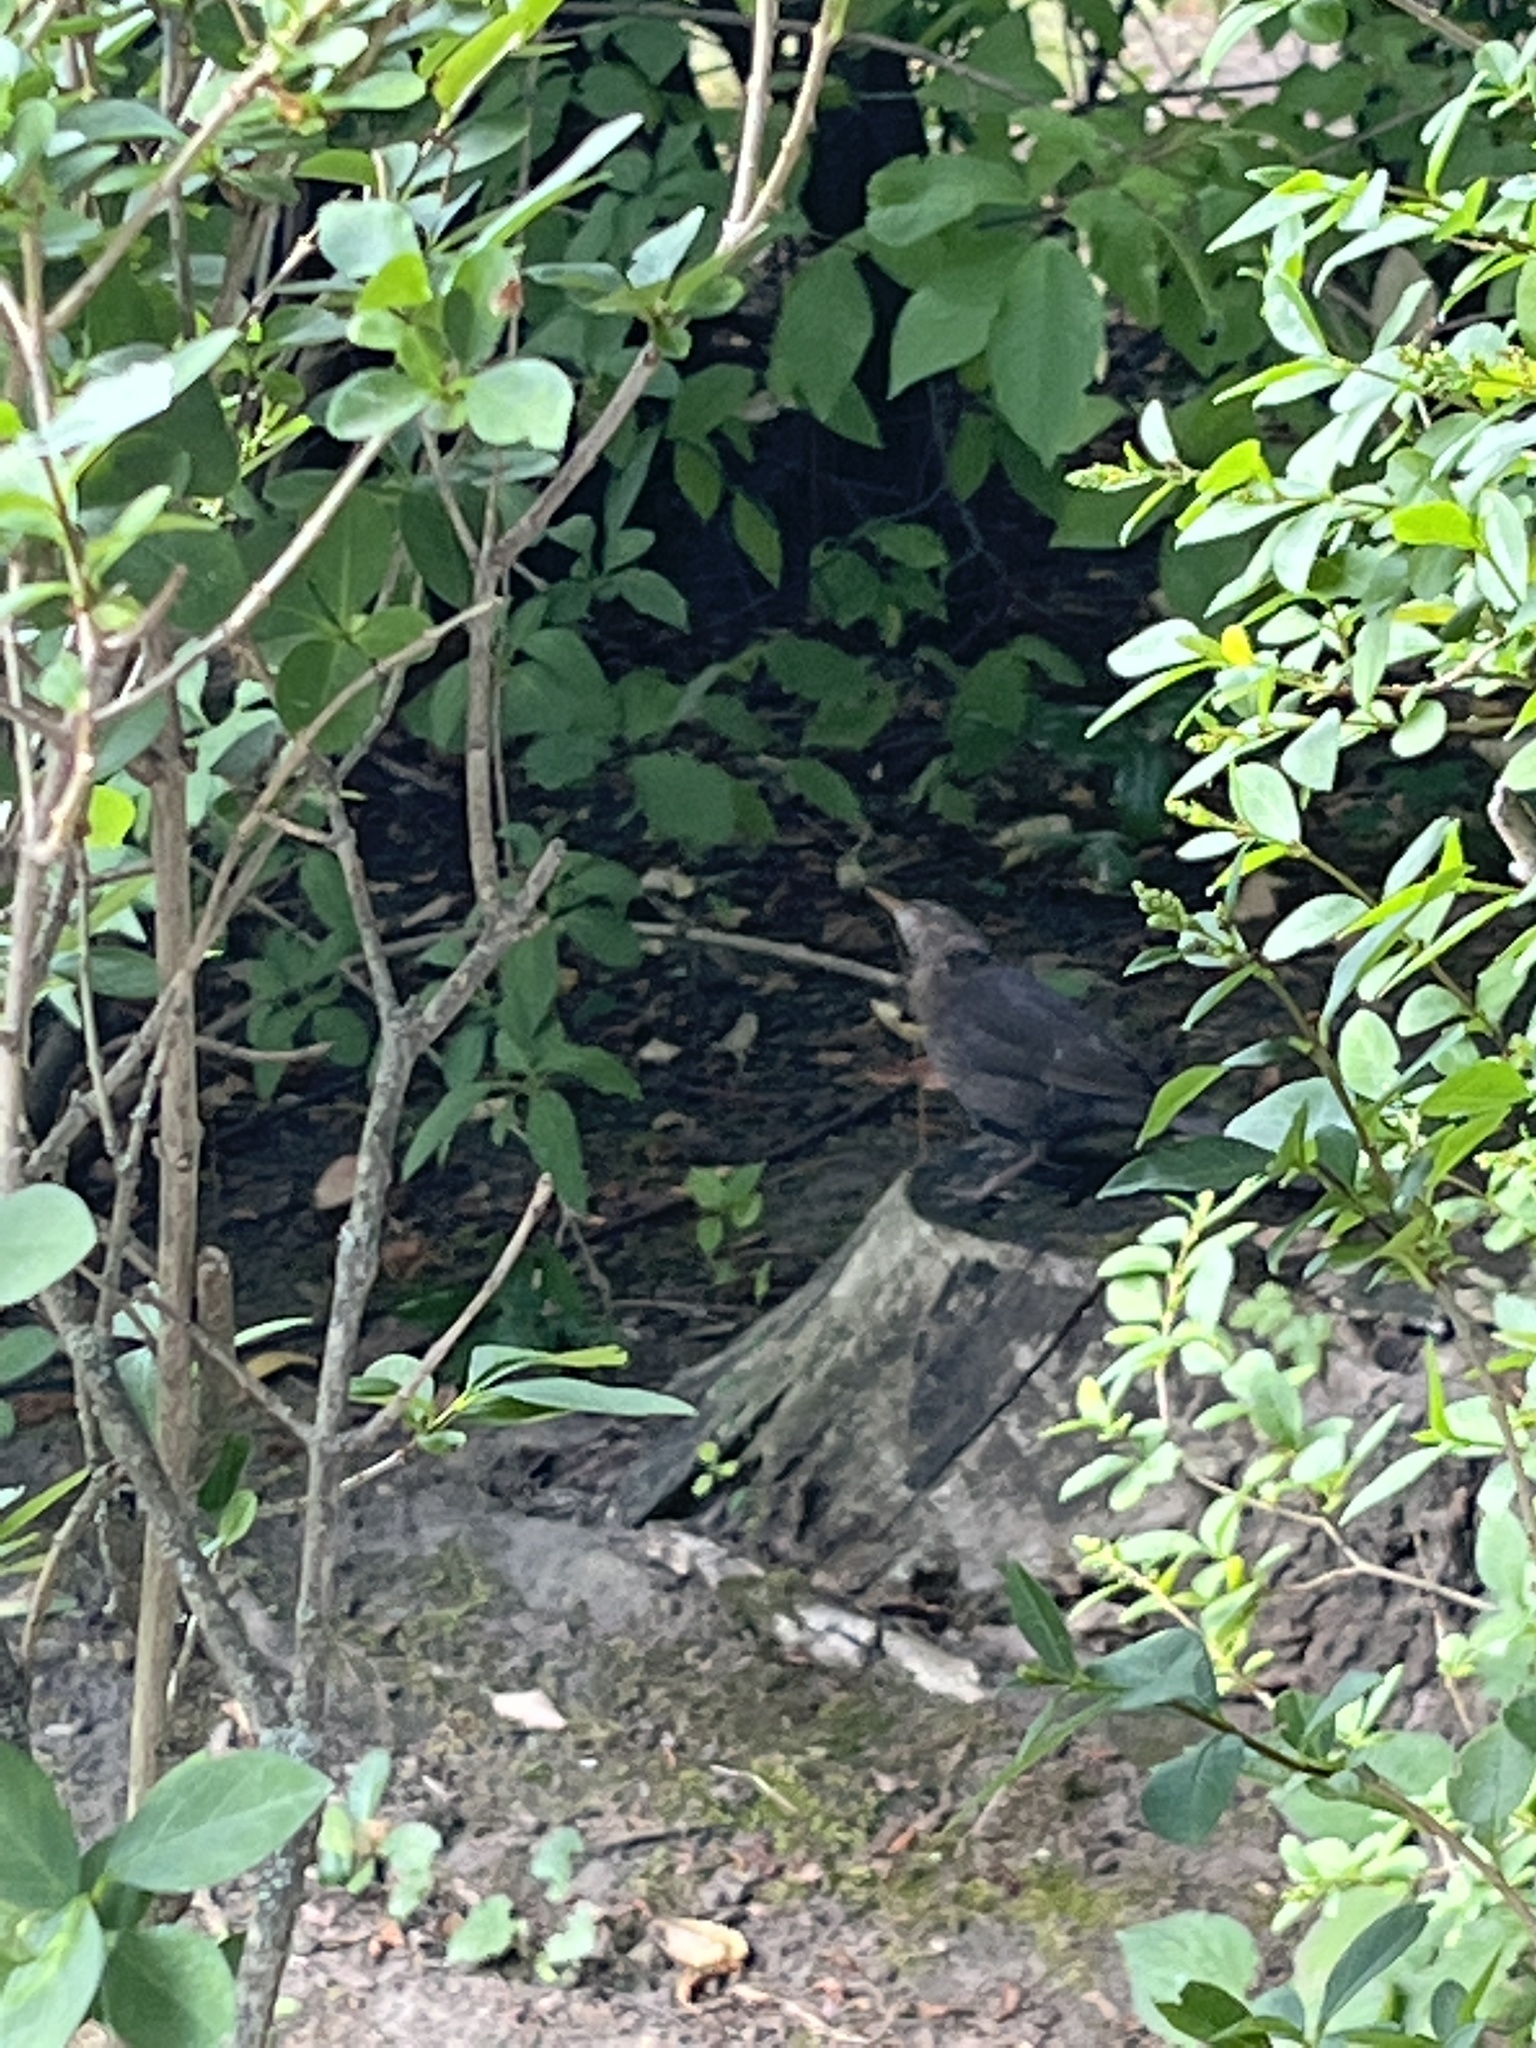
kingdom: Animalia
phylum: Chordata
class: Aves
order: Passeriformes
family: Turdidae
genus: Turdus
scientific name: Turdus merula
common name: Common blackbird
